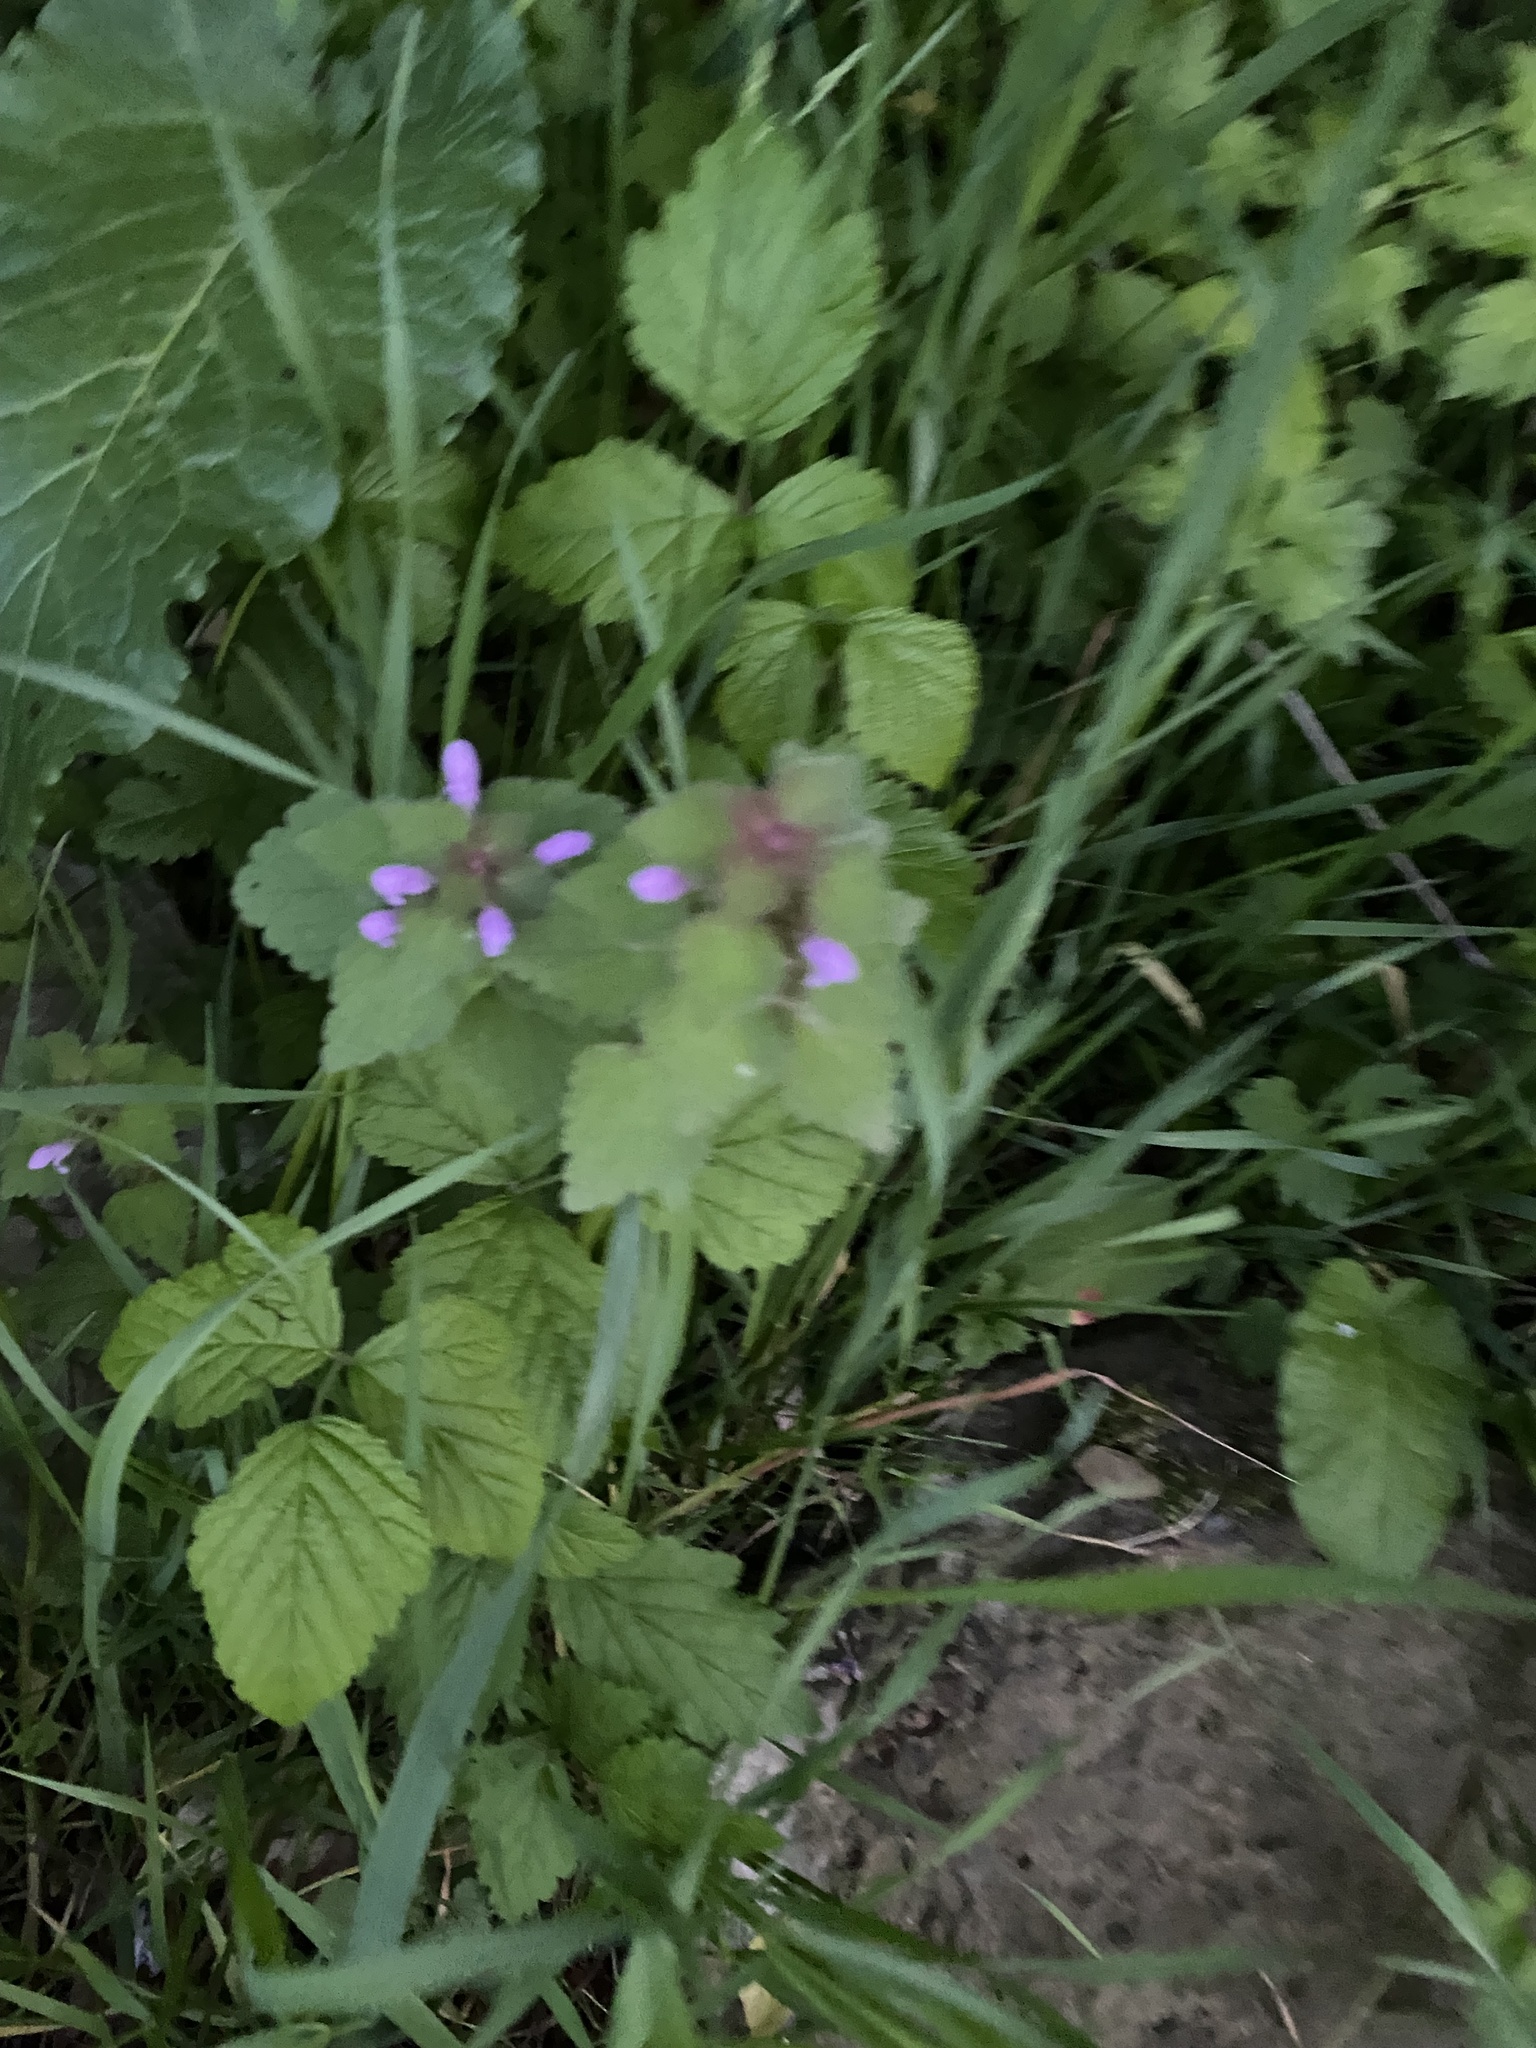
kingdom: Plantae
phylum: Tracheophyta
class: Magnoliopsida
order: Lamiales
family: Lamiaceae
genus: Lamium
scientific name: Lamium purpureum
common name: Red dead-nettle
